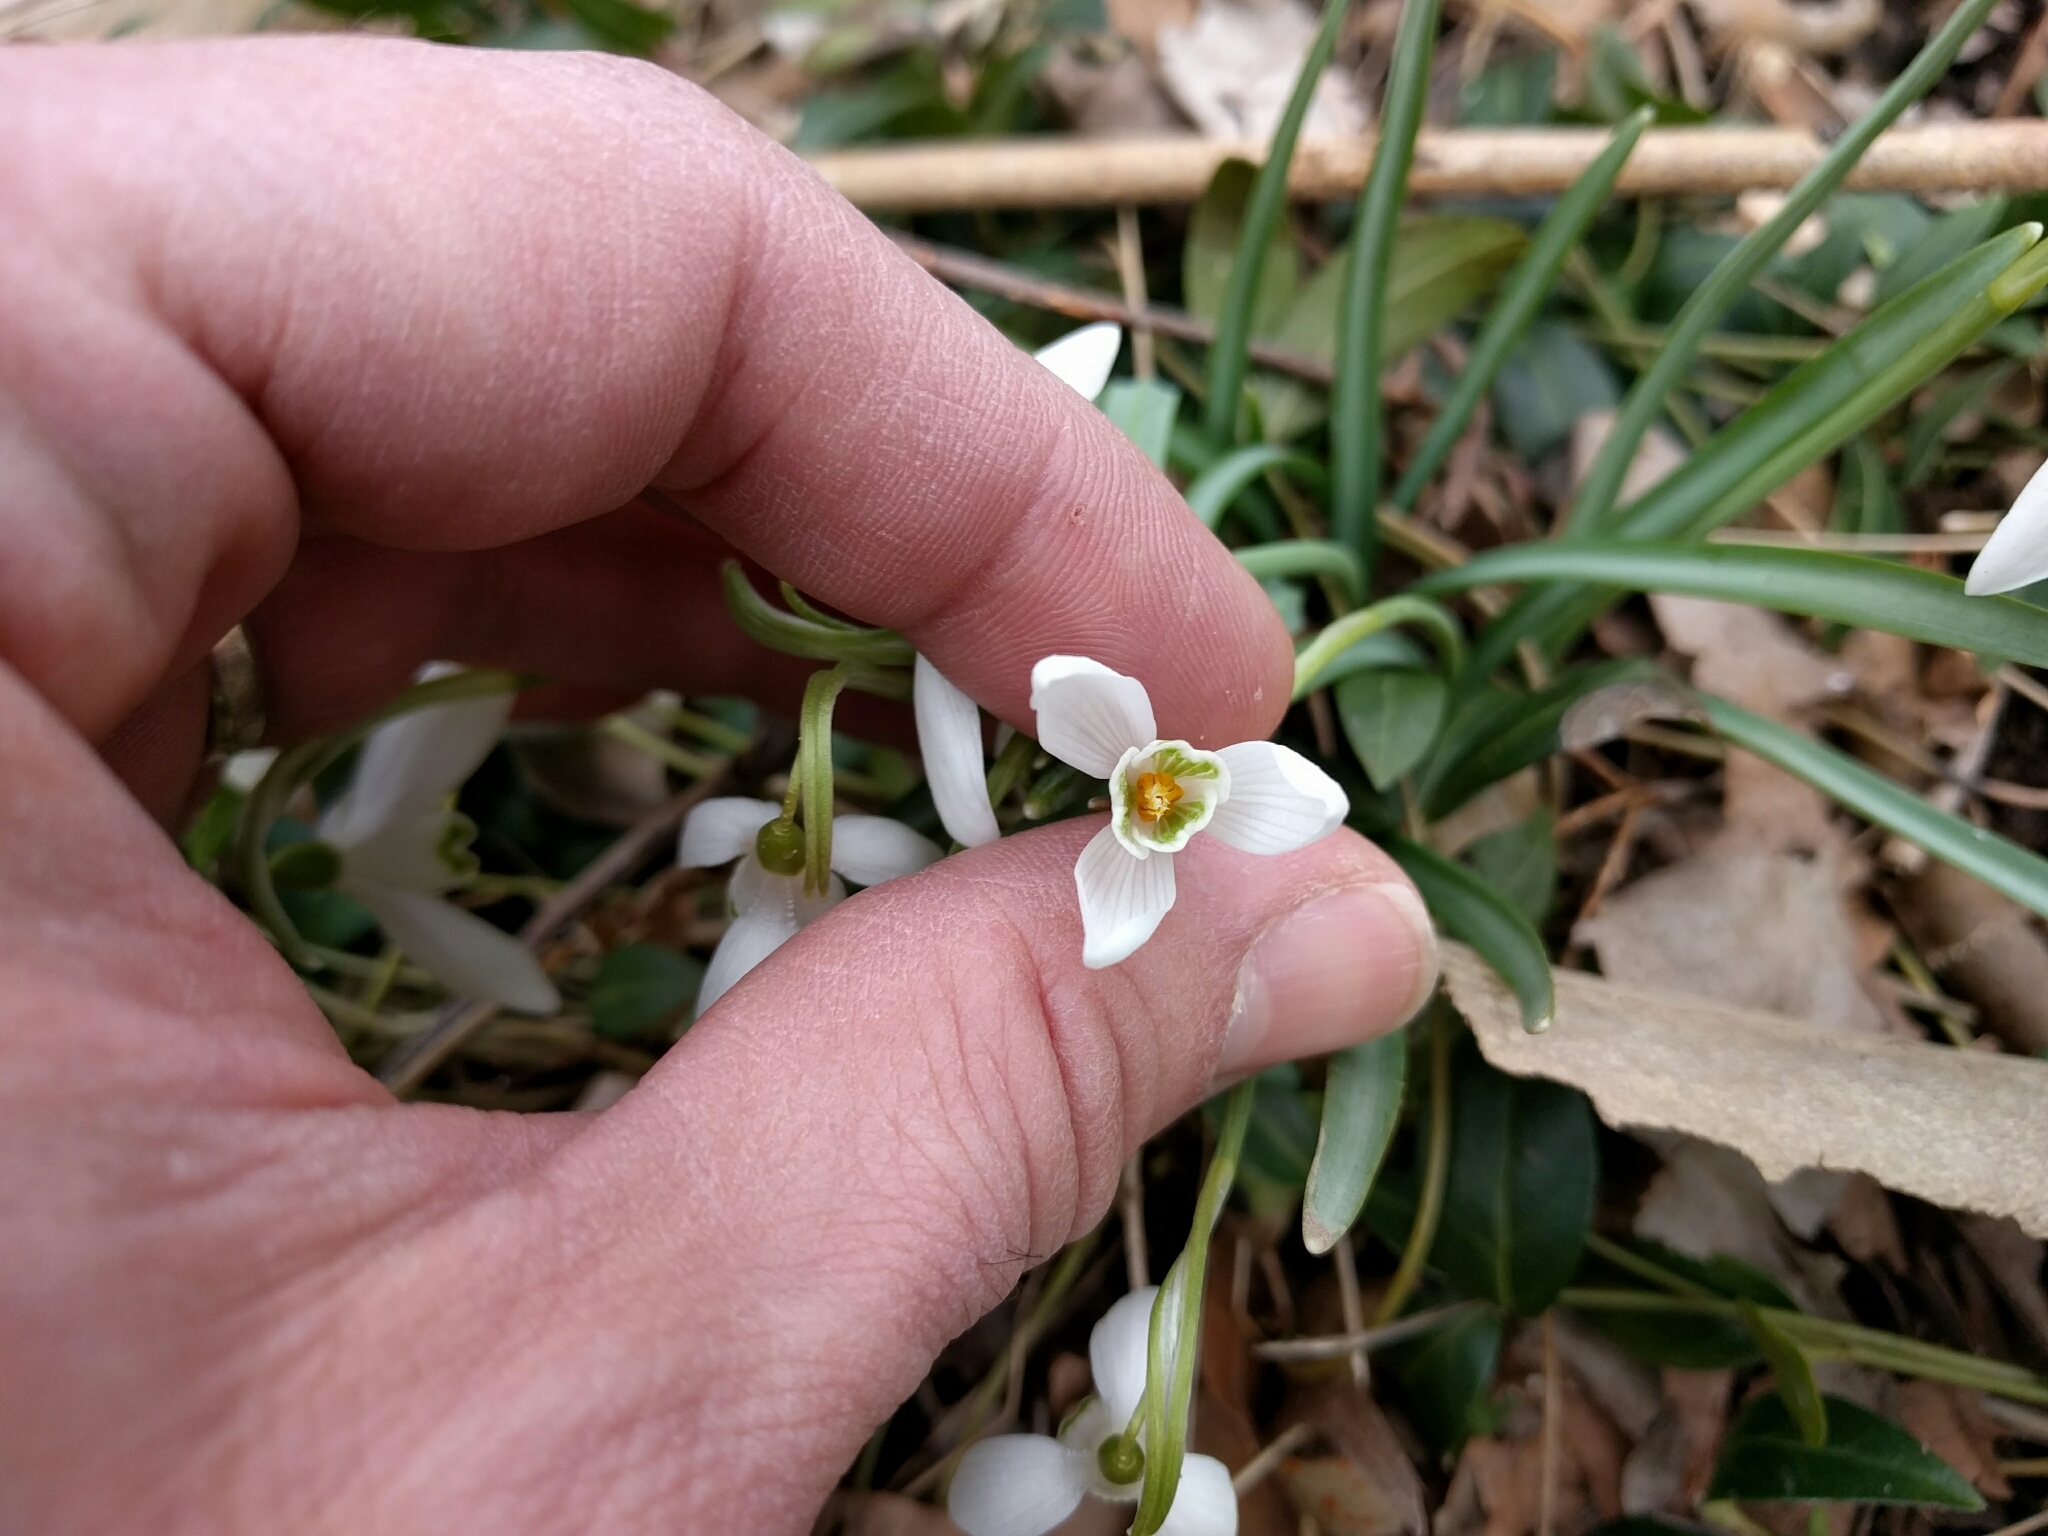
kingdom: Plantae
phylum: Tracheophyta
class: Liliopsida
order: Asparagales
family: Amaryllidaceae
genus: Galanthus
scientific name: Galanthus nivalis
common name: Snowdrop
